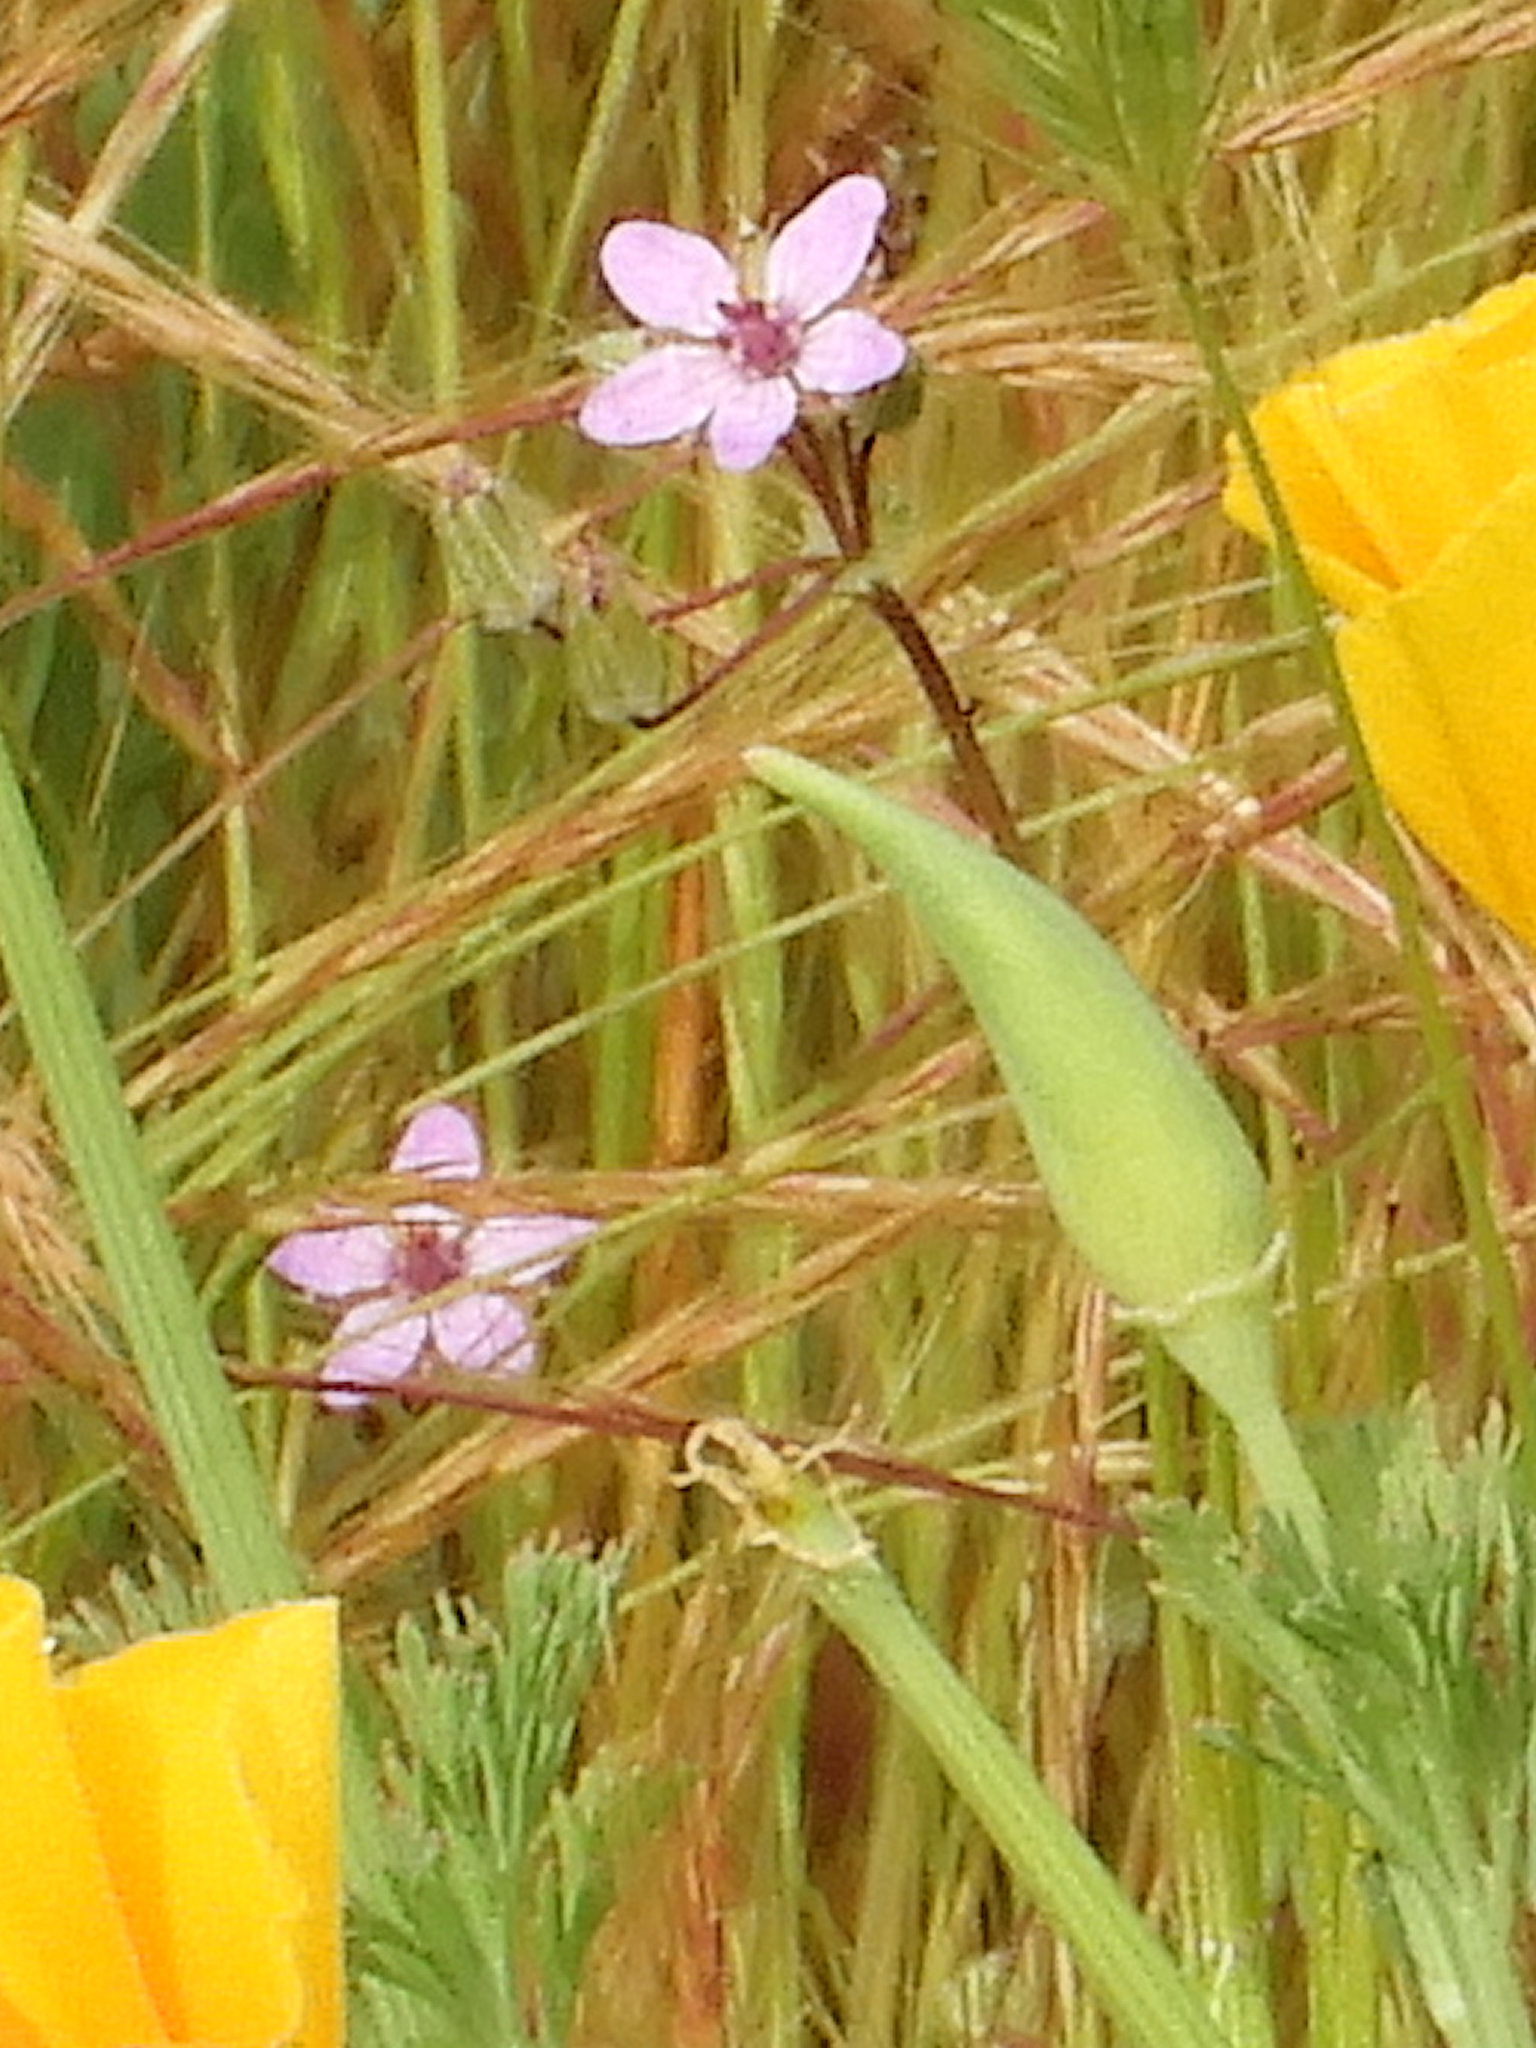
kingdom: Plantae
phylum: Tracheophyta
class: Magnoliopsida
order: Geraniales
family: Geraniaceae
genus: Erodium
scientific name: Erodium cicutarium
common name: Common stork's-bill
